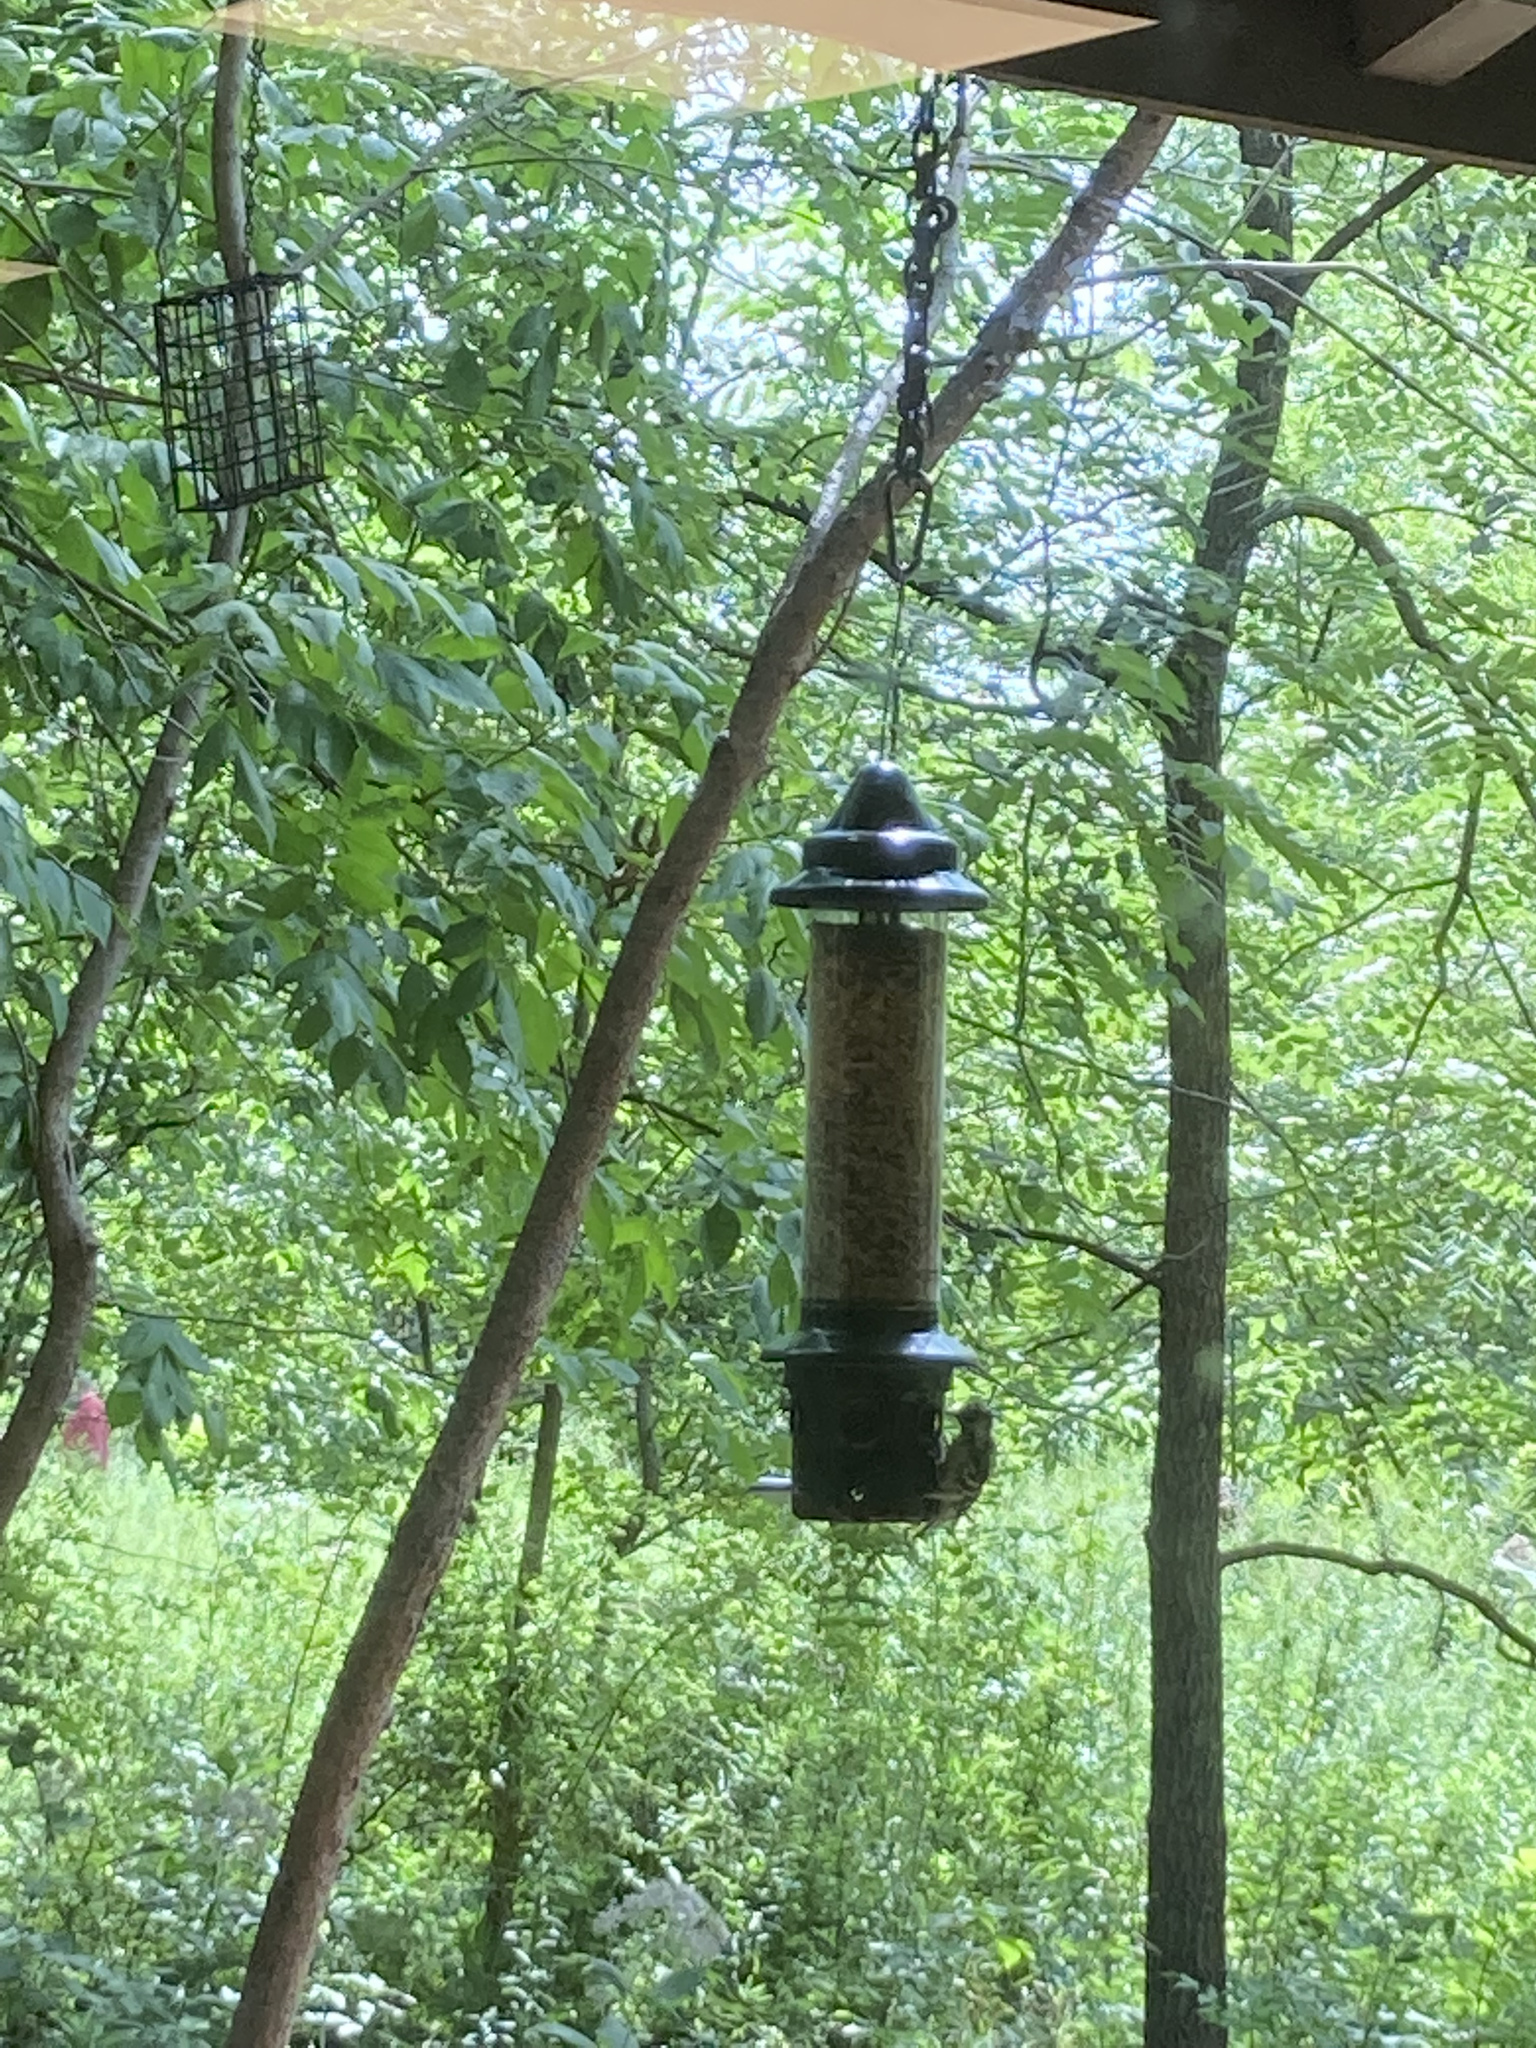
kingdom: Animalia
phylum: Chordata
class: Aves
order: Piciformes
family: Picidae
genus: Dryobates
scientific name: Dryobates pubescens
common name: Downy woodpecker
